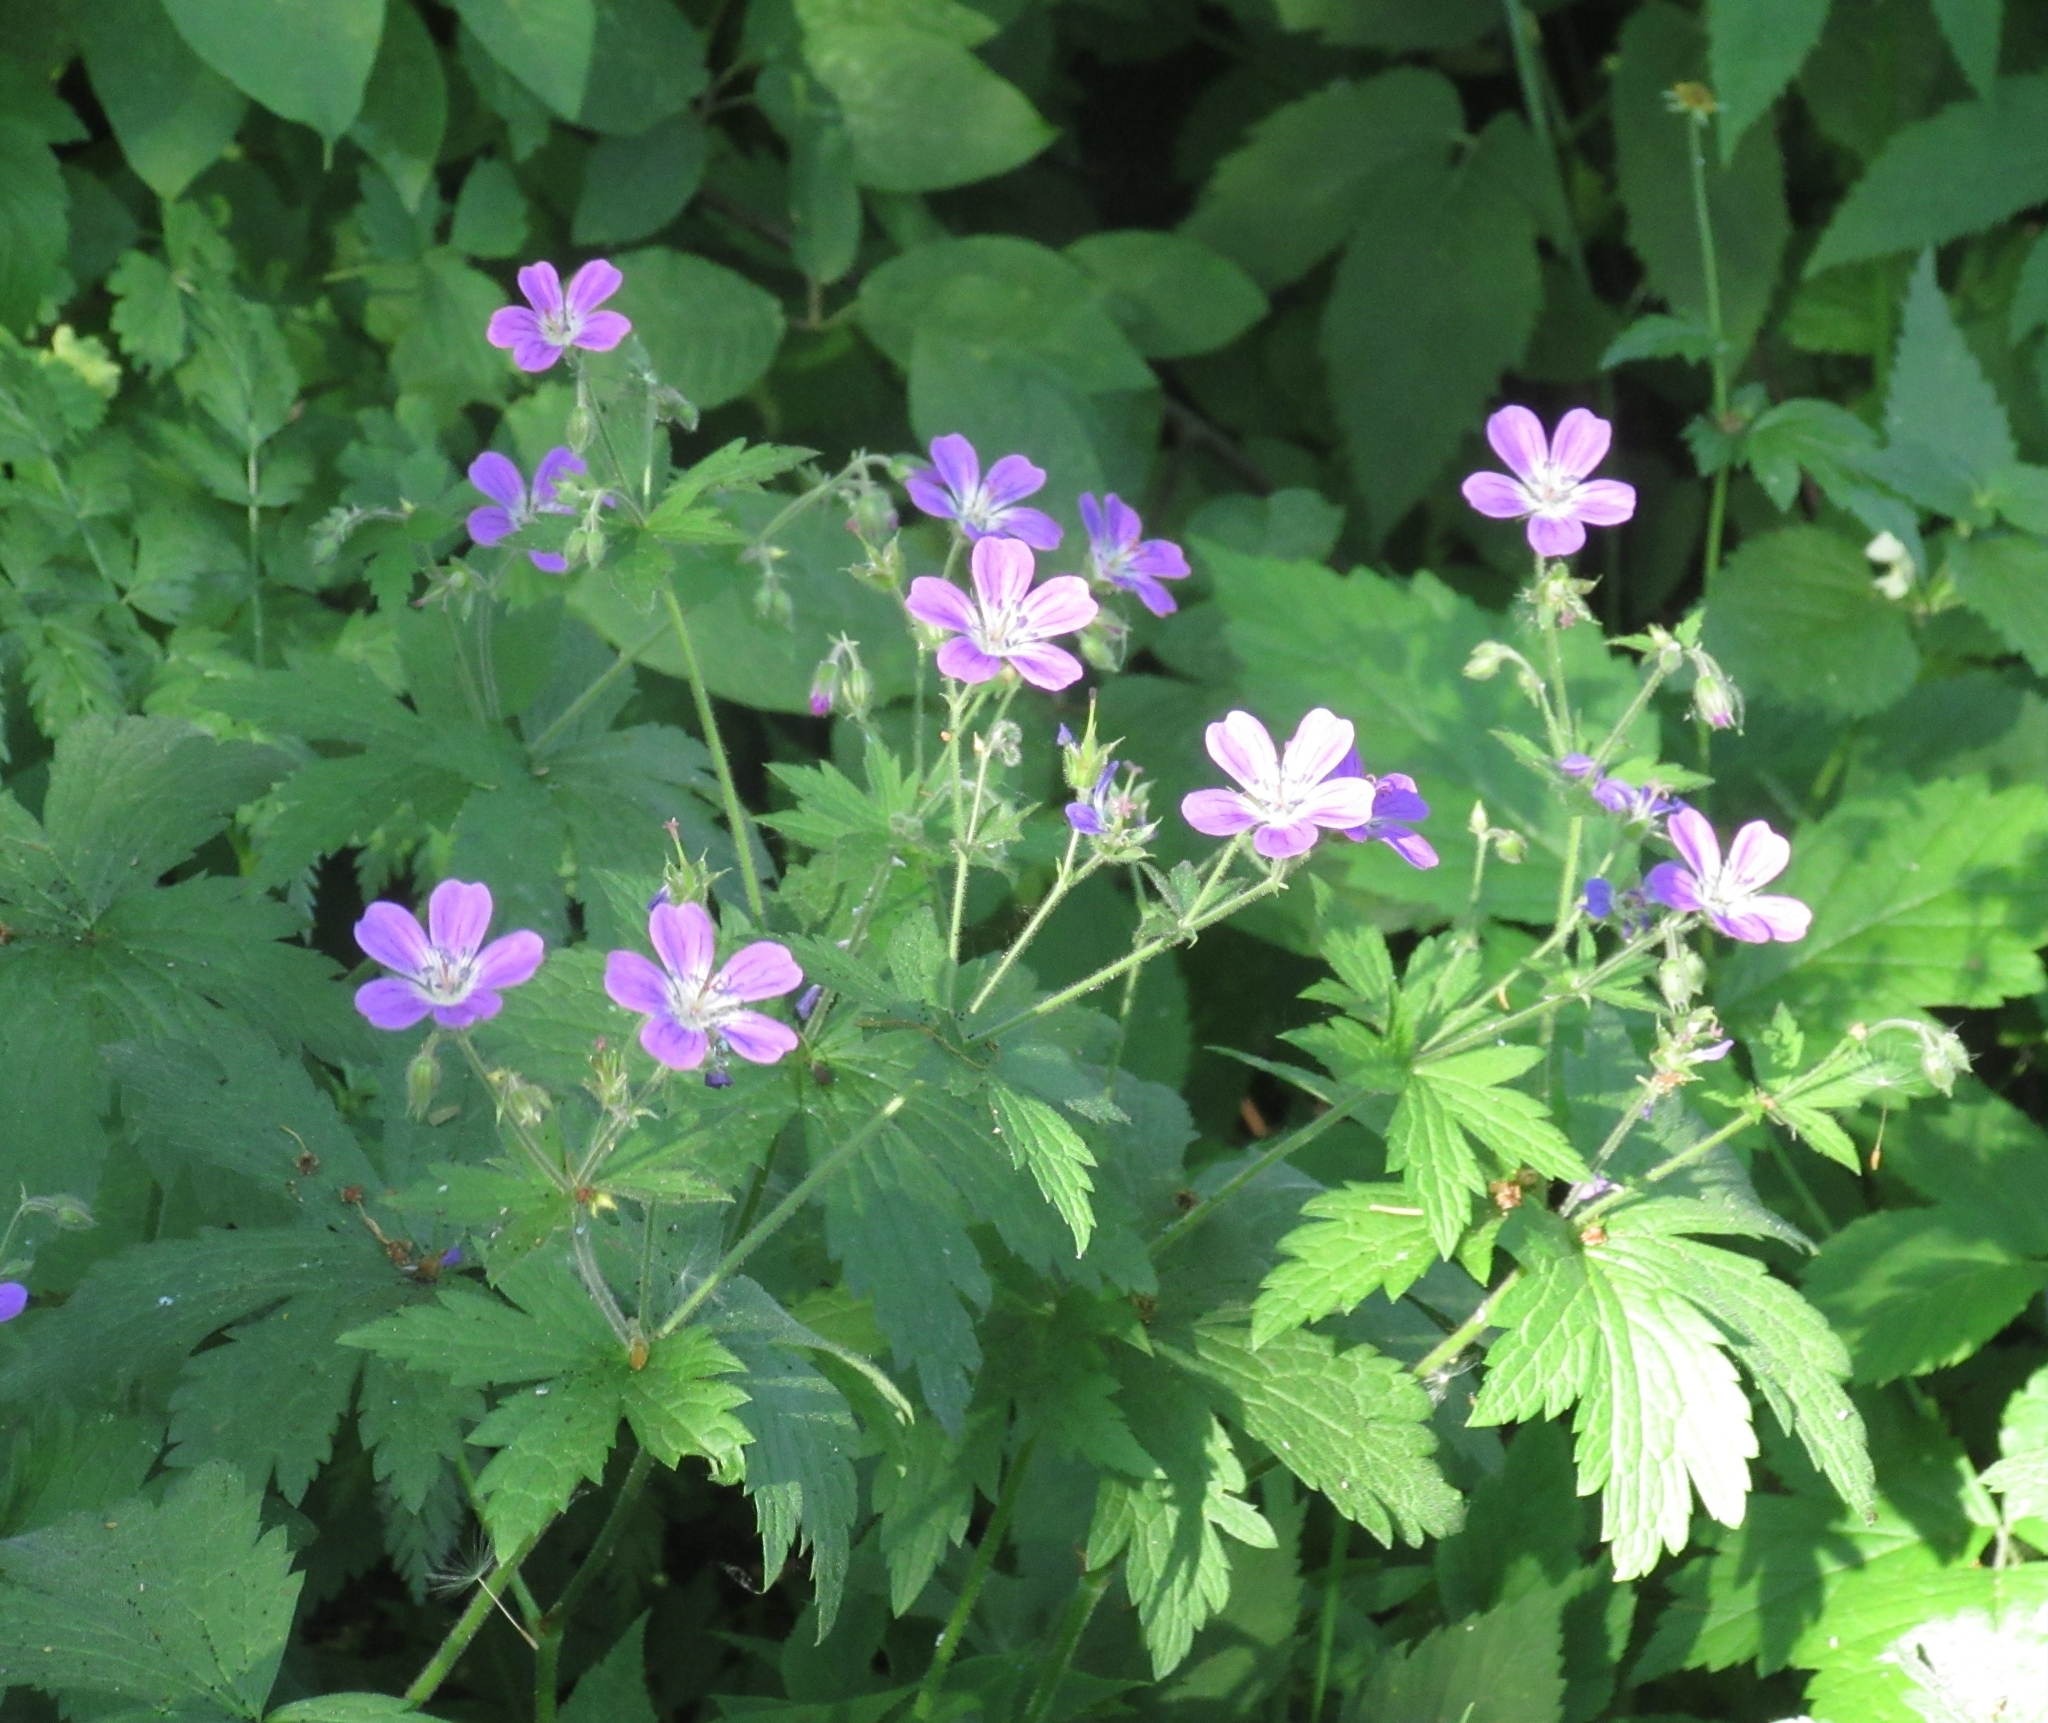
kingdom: Plantae
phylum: Tracheophyta
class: Magnoliopsida
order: Geraniales
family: Geraniaceae
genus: Geranium
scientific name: Geranium sylvaticum
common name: Wood crane's-bill
